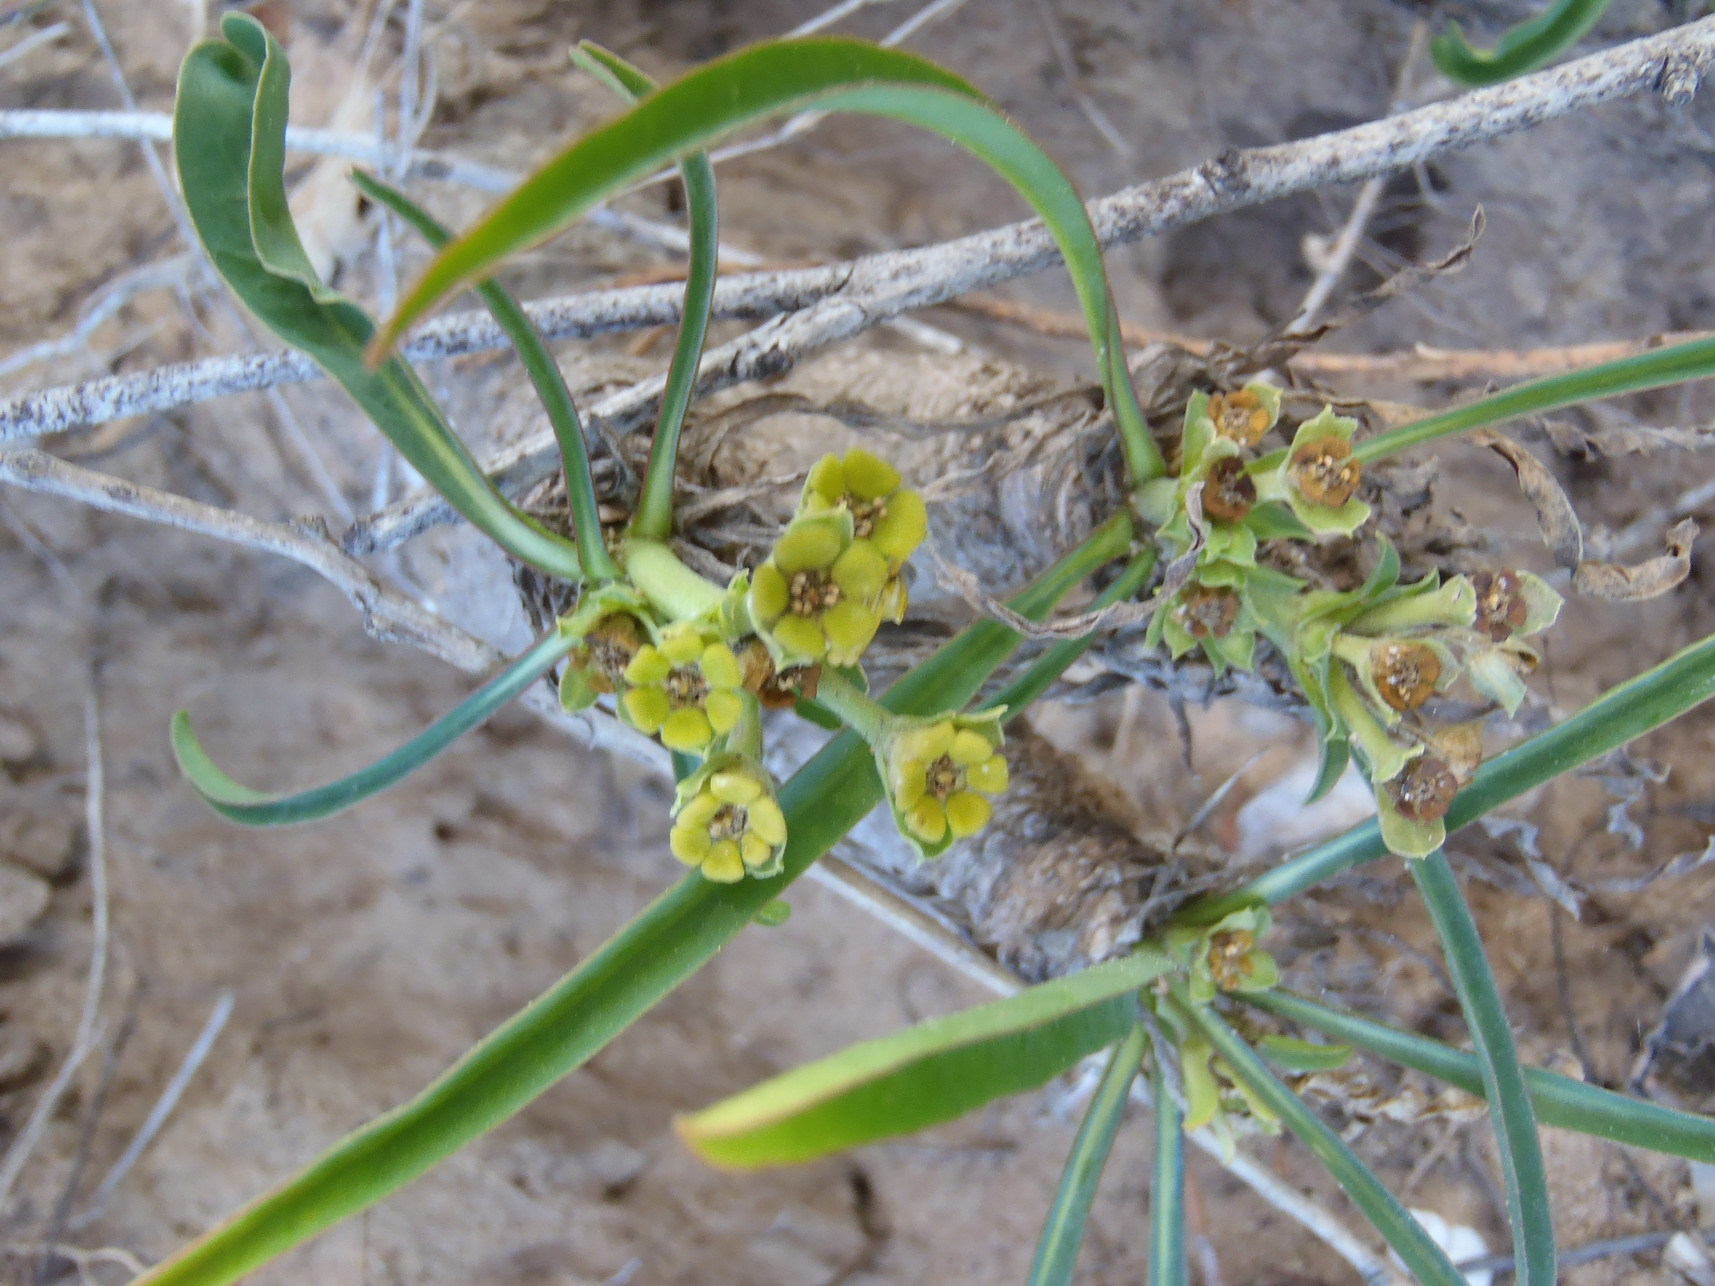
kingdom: Plantae
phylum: Tracheophyta
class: Magnoliopsida
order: Malpighiales
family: Euphorbiaceae
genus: Euphorbia
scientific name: Euphorbia silenifolia
